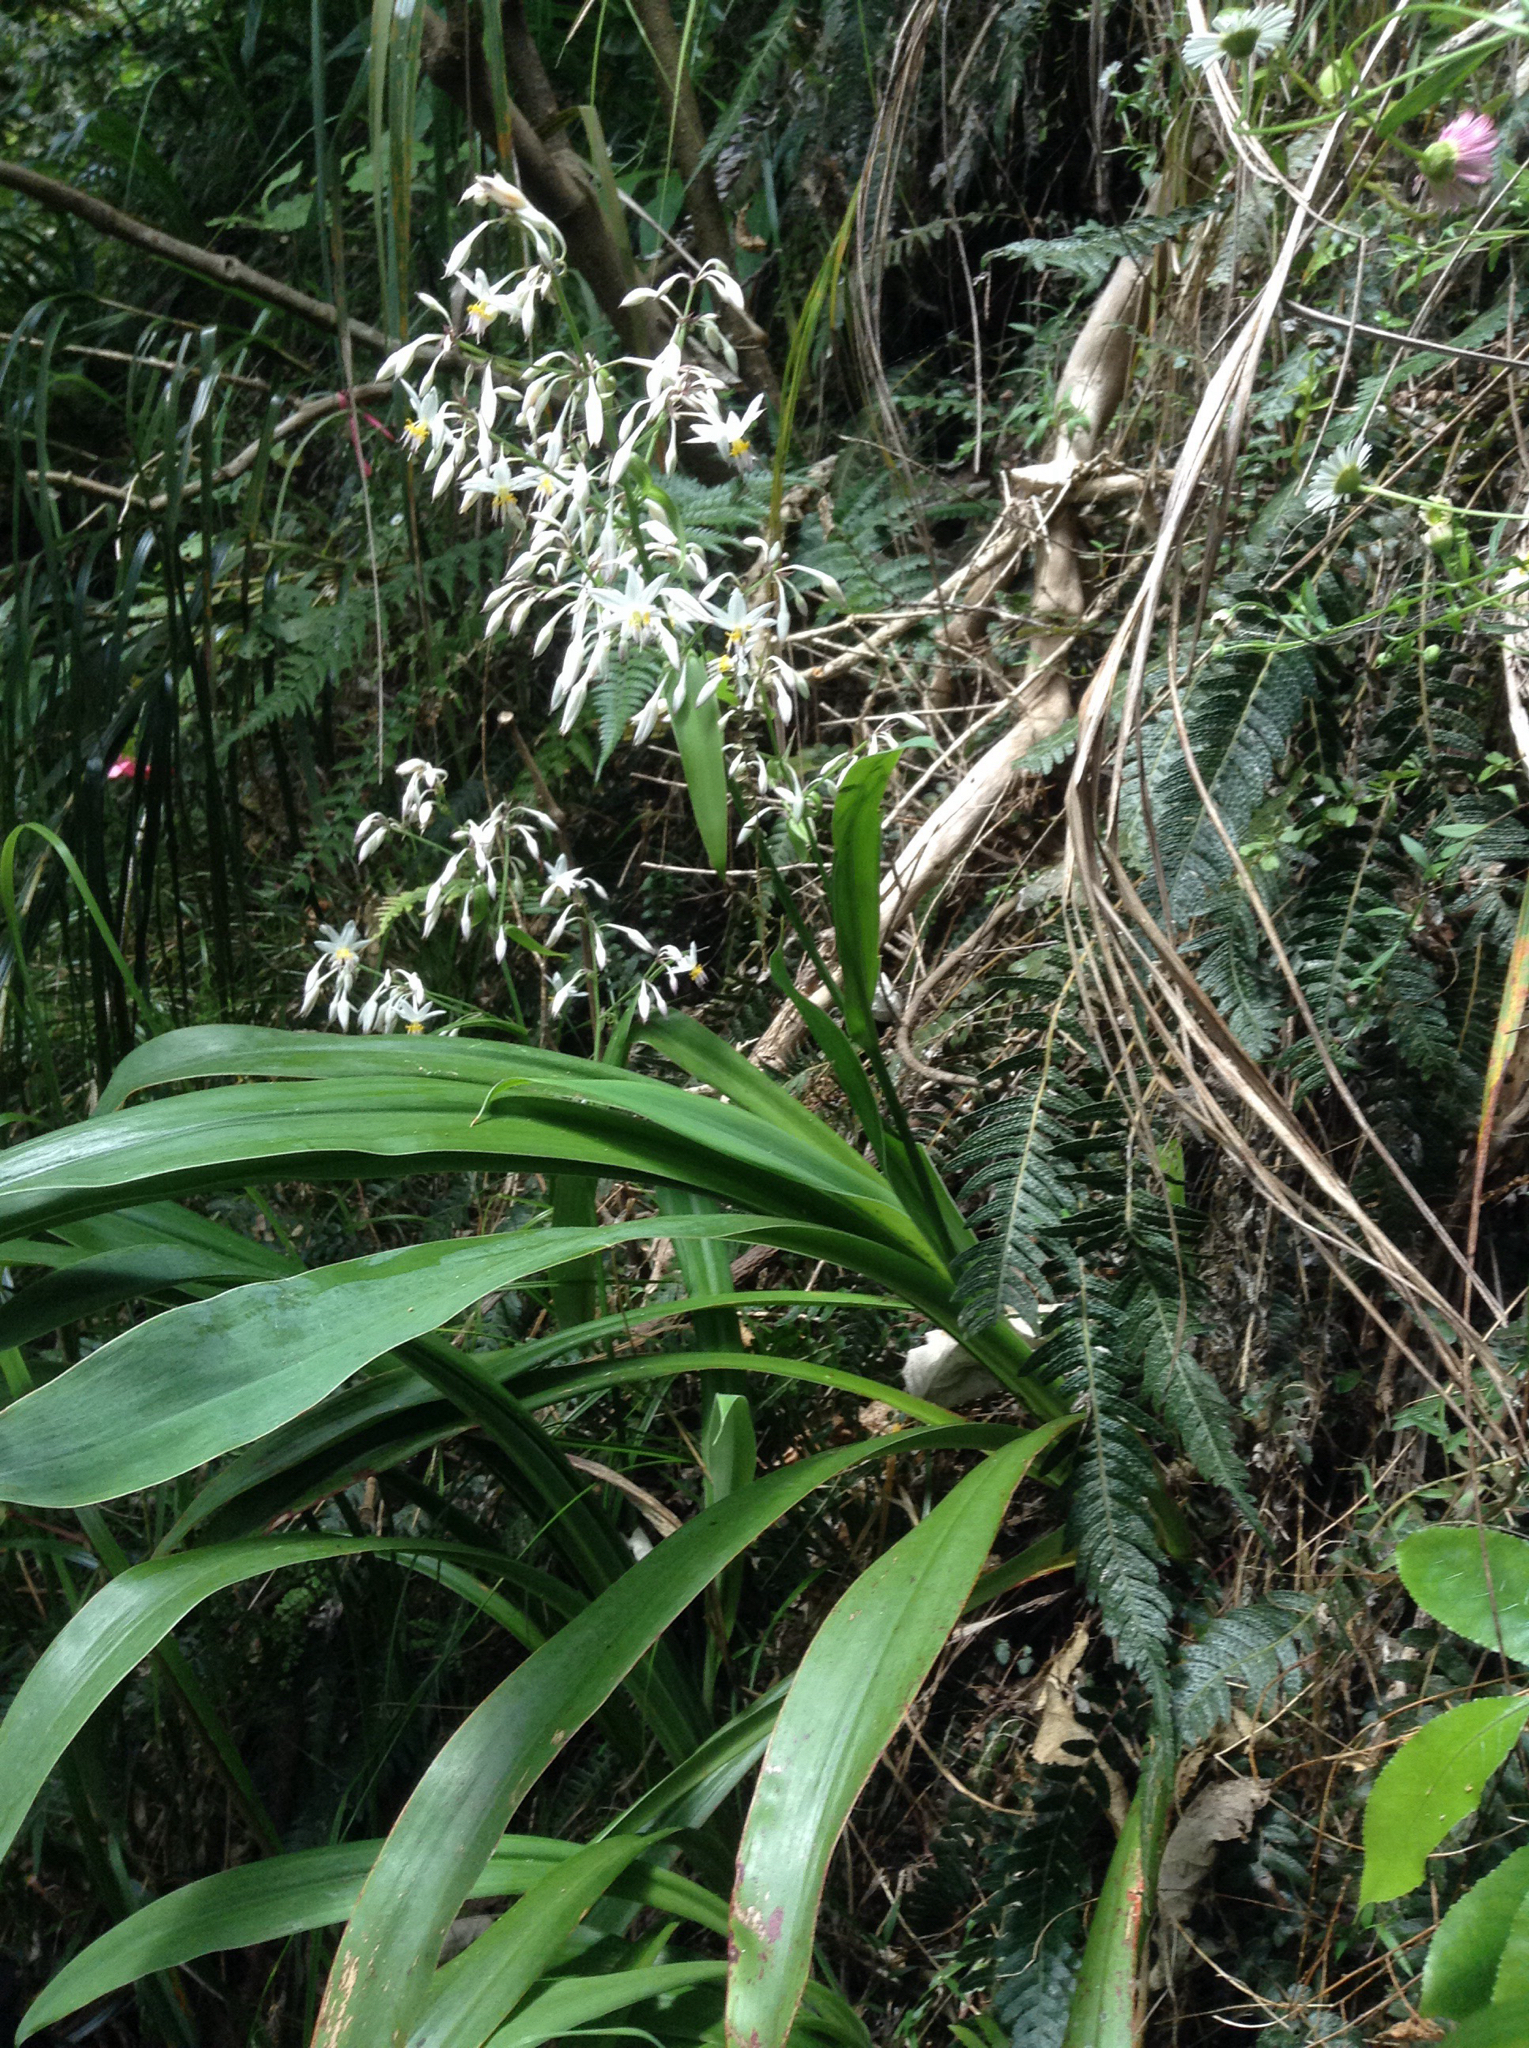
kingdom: Plantae
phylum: Tracheophyta
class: Liliopsida
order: Asparagales
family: Asparagaceae
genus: Arthropodium
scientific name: Arthropodium cirratum
